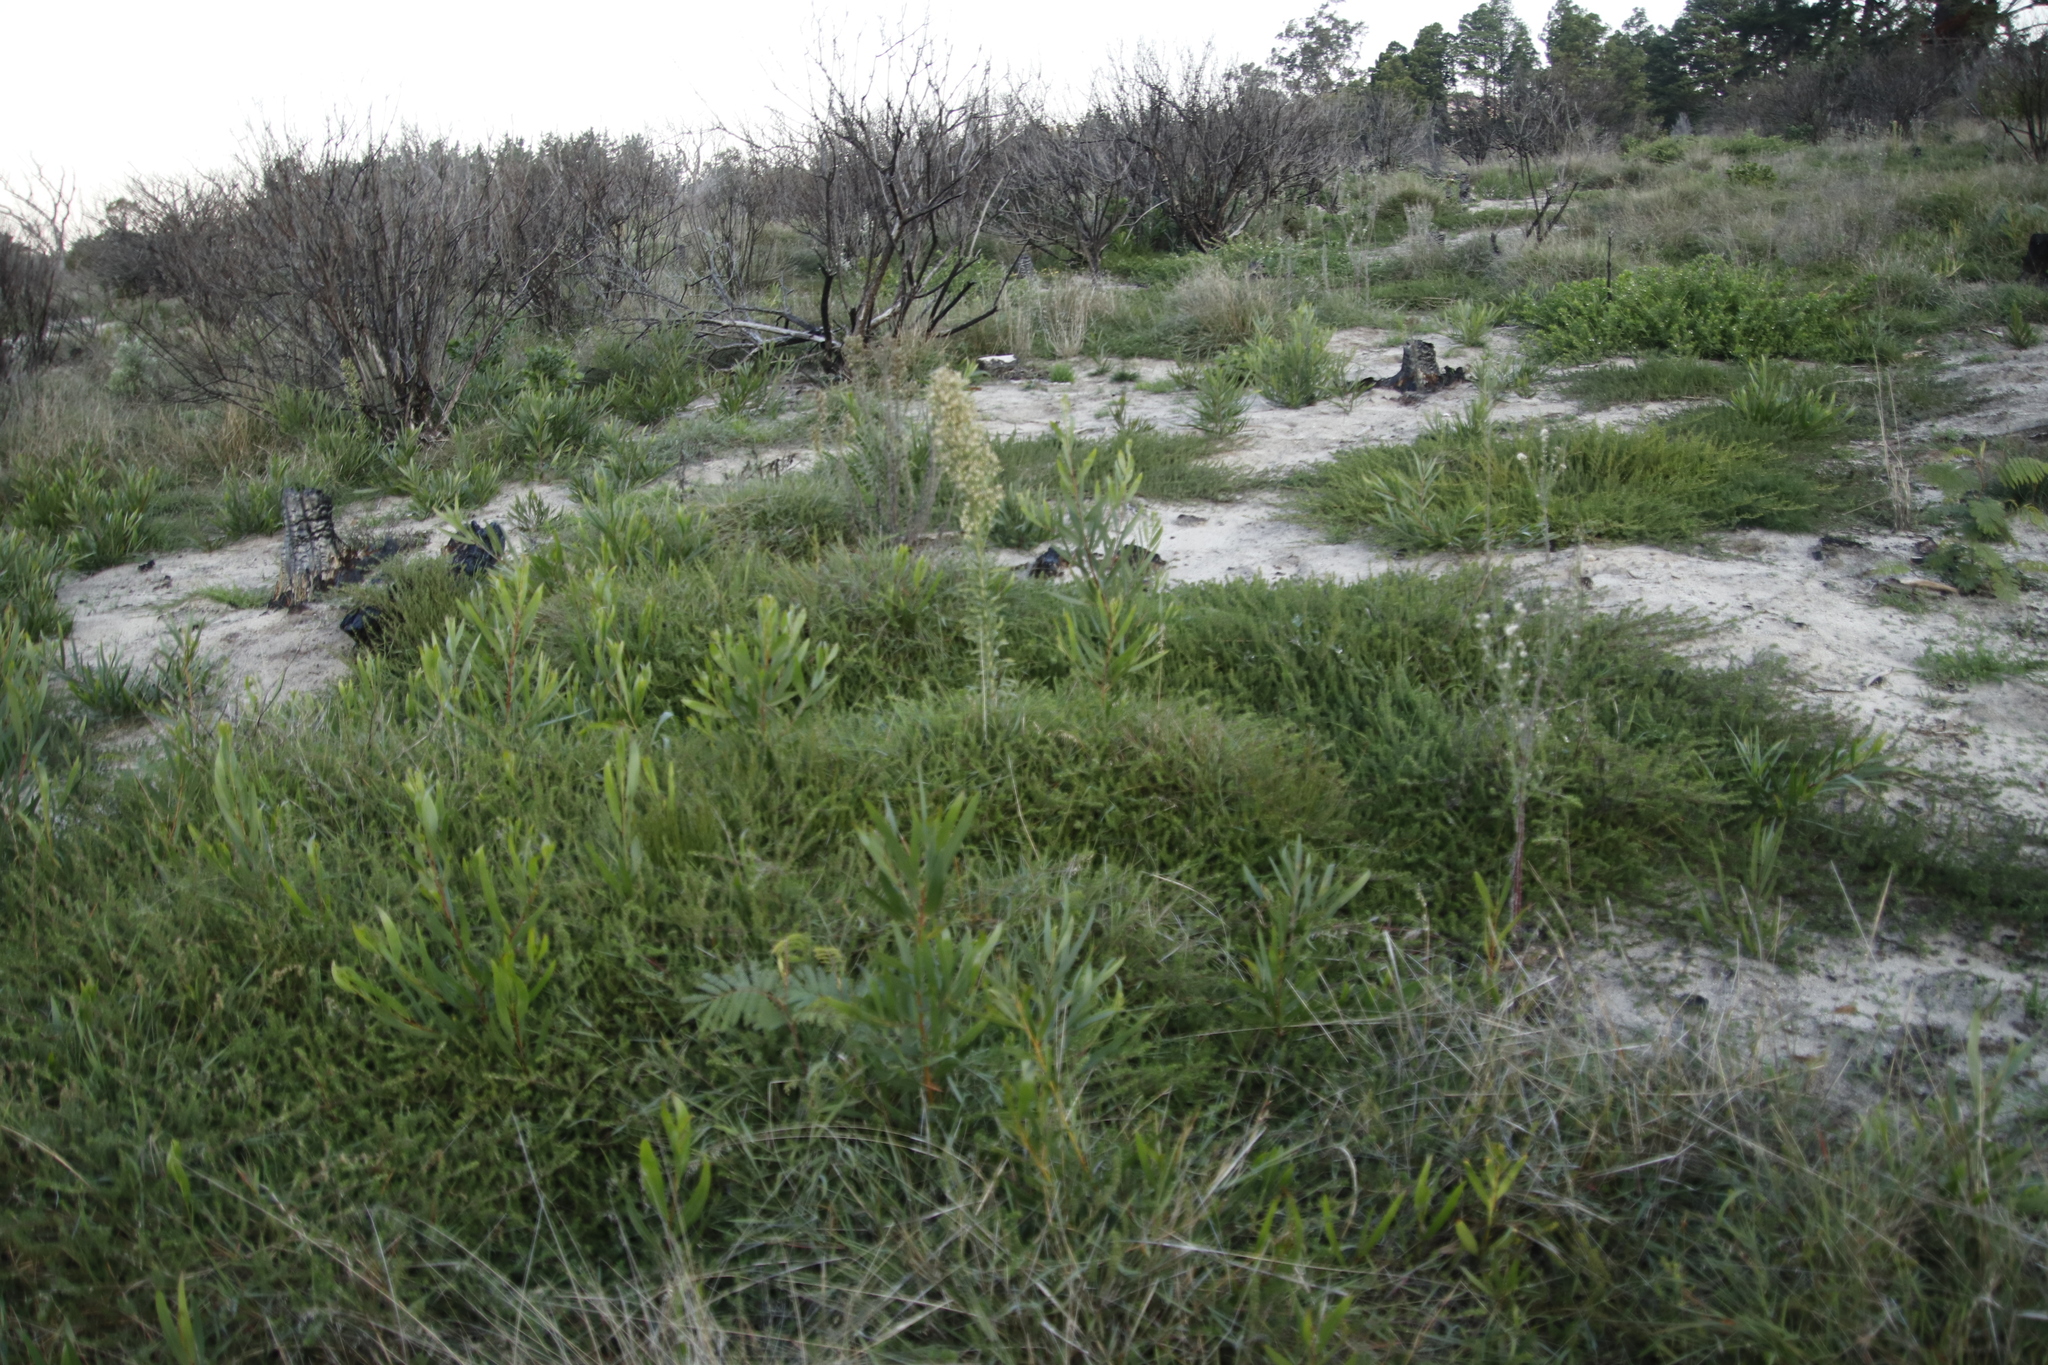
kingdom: Plantae
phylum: Tracheophyta
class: Magnoliopsida
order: Fabales
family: Fabaceae
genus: Acacia
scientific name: Acacia longifolia
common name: Sydney golden wattle
